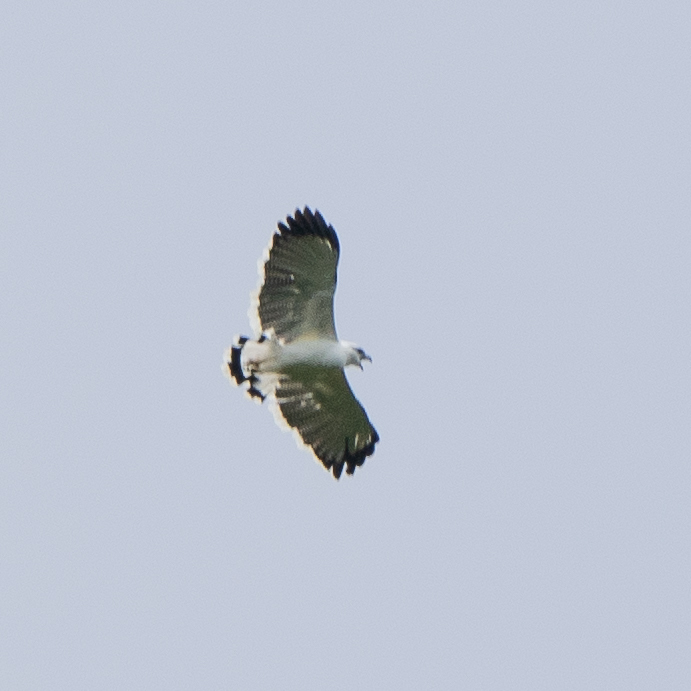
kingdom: Animalia
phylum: Chordata
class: Aves
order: Accipitriformes
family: Accipitridae
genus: Leucopternis
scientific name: Leucopternis albicollis
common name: White hawk
